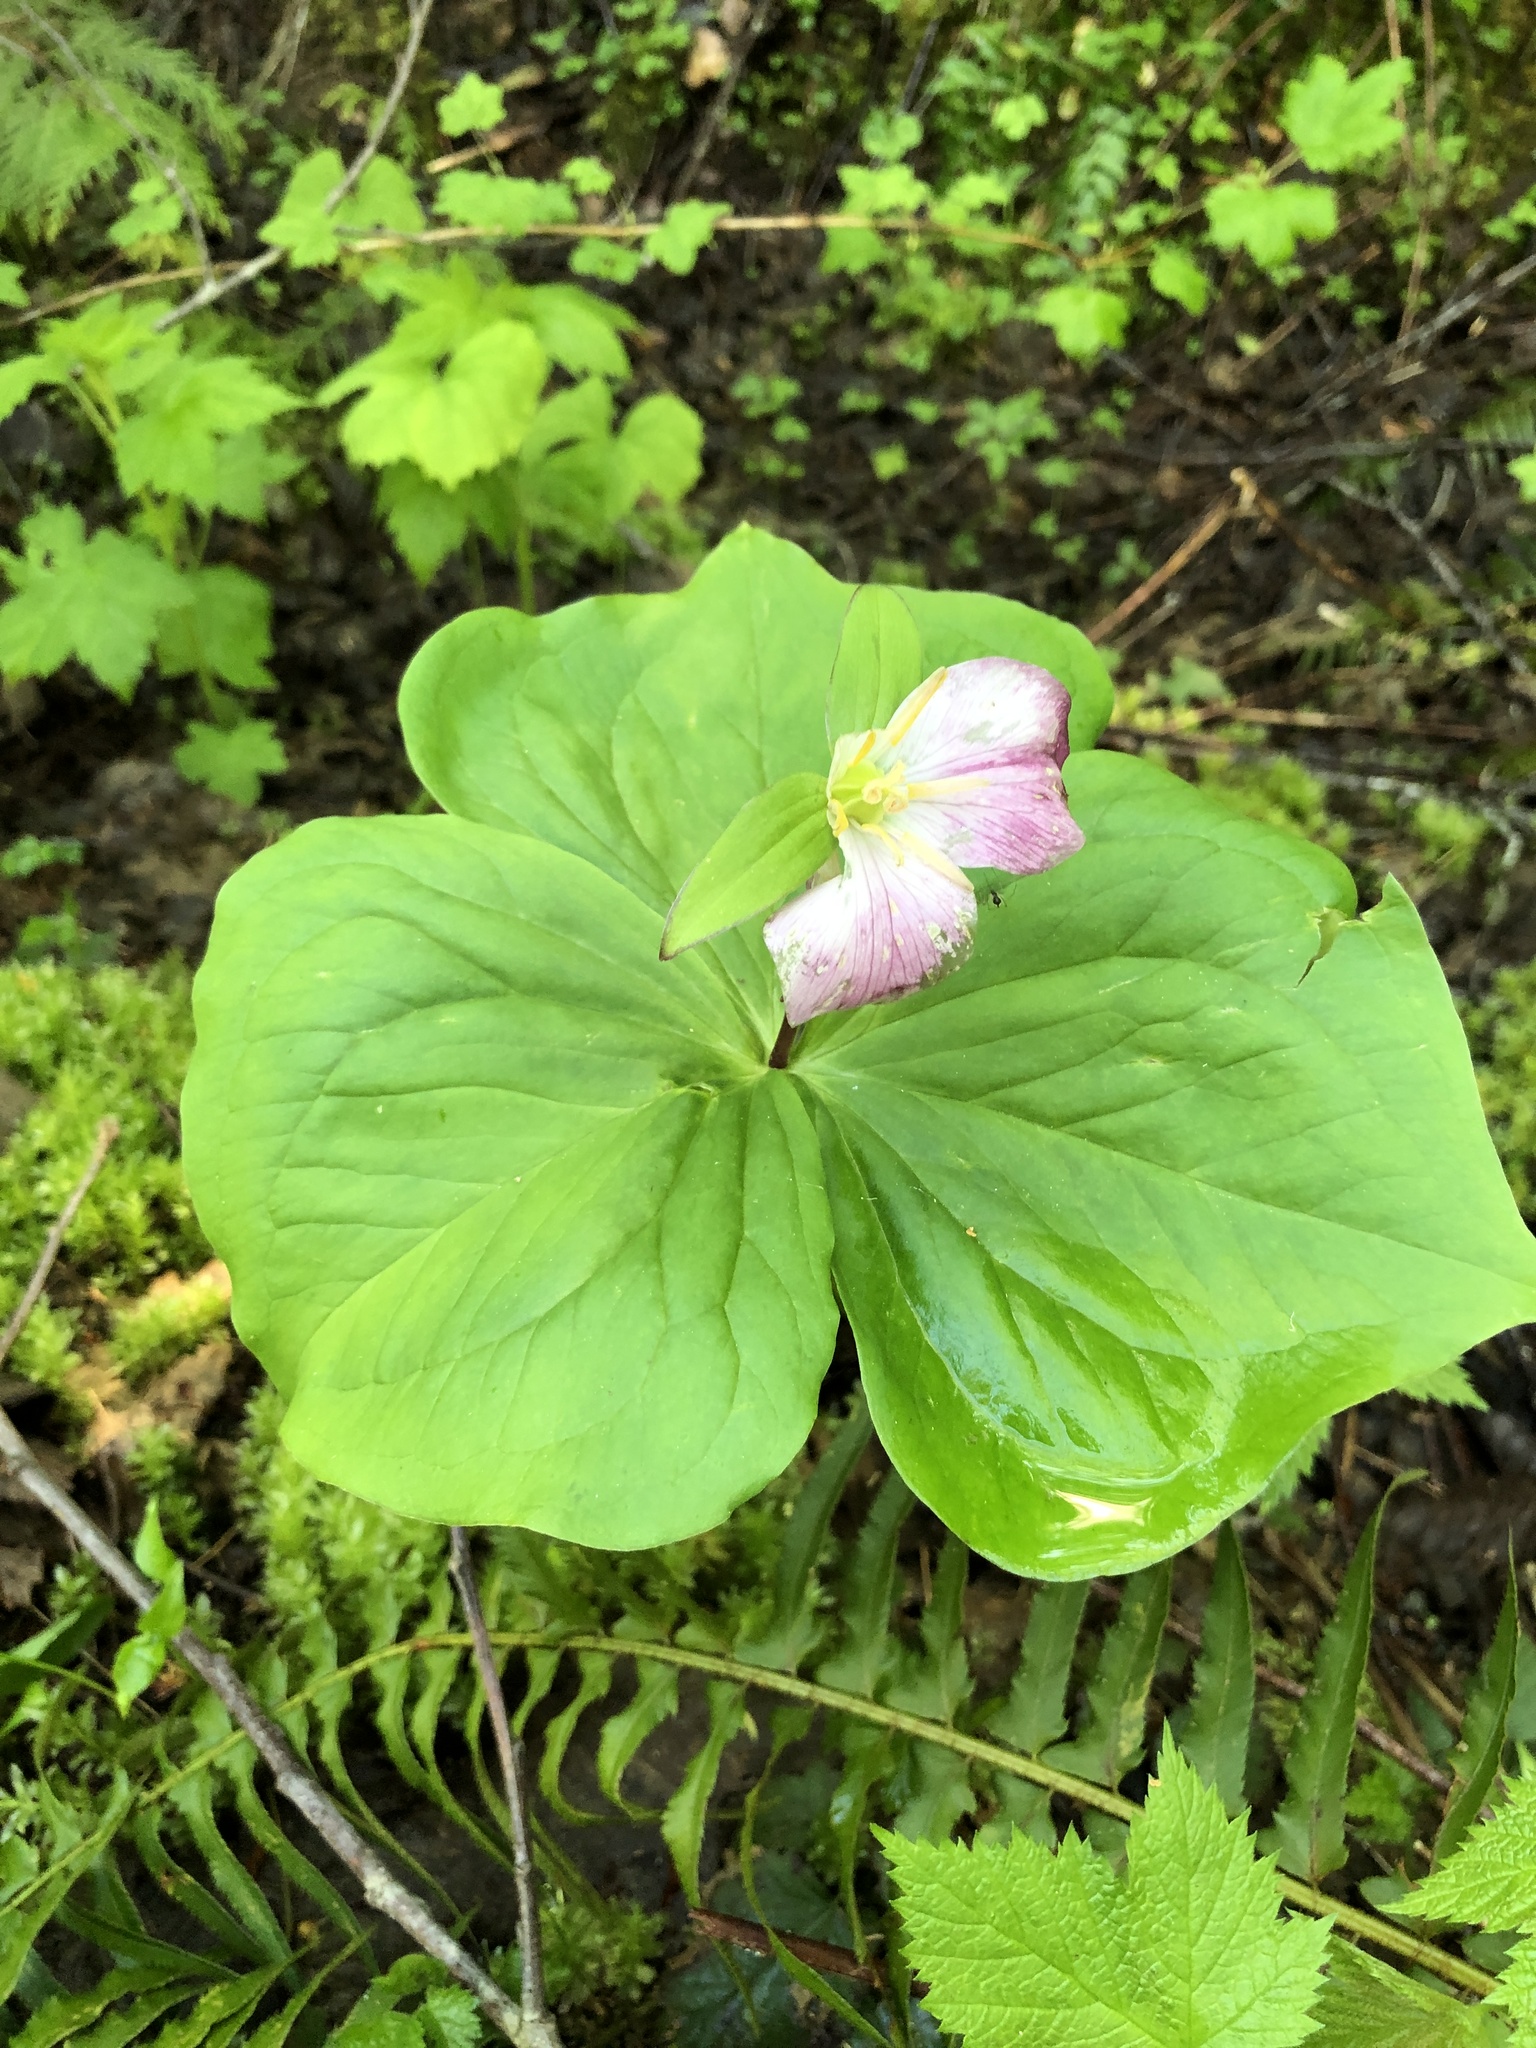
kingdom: Plantae
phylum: Tracheophyta
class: Liliopsida
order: Liliales
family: Melanthiaceae
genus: Trillium
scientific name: Trillium ovatum
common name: Pacific trillium
